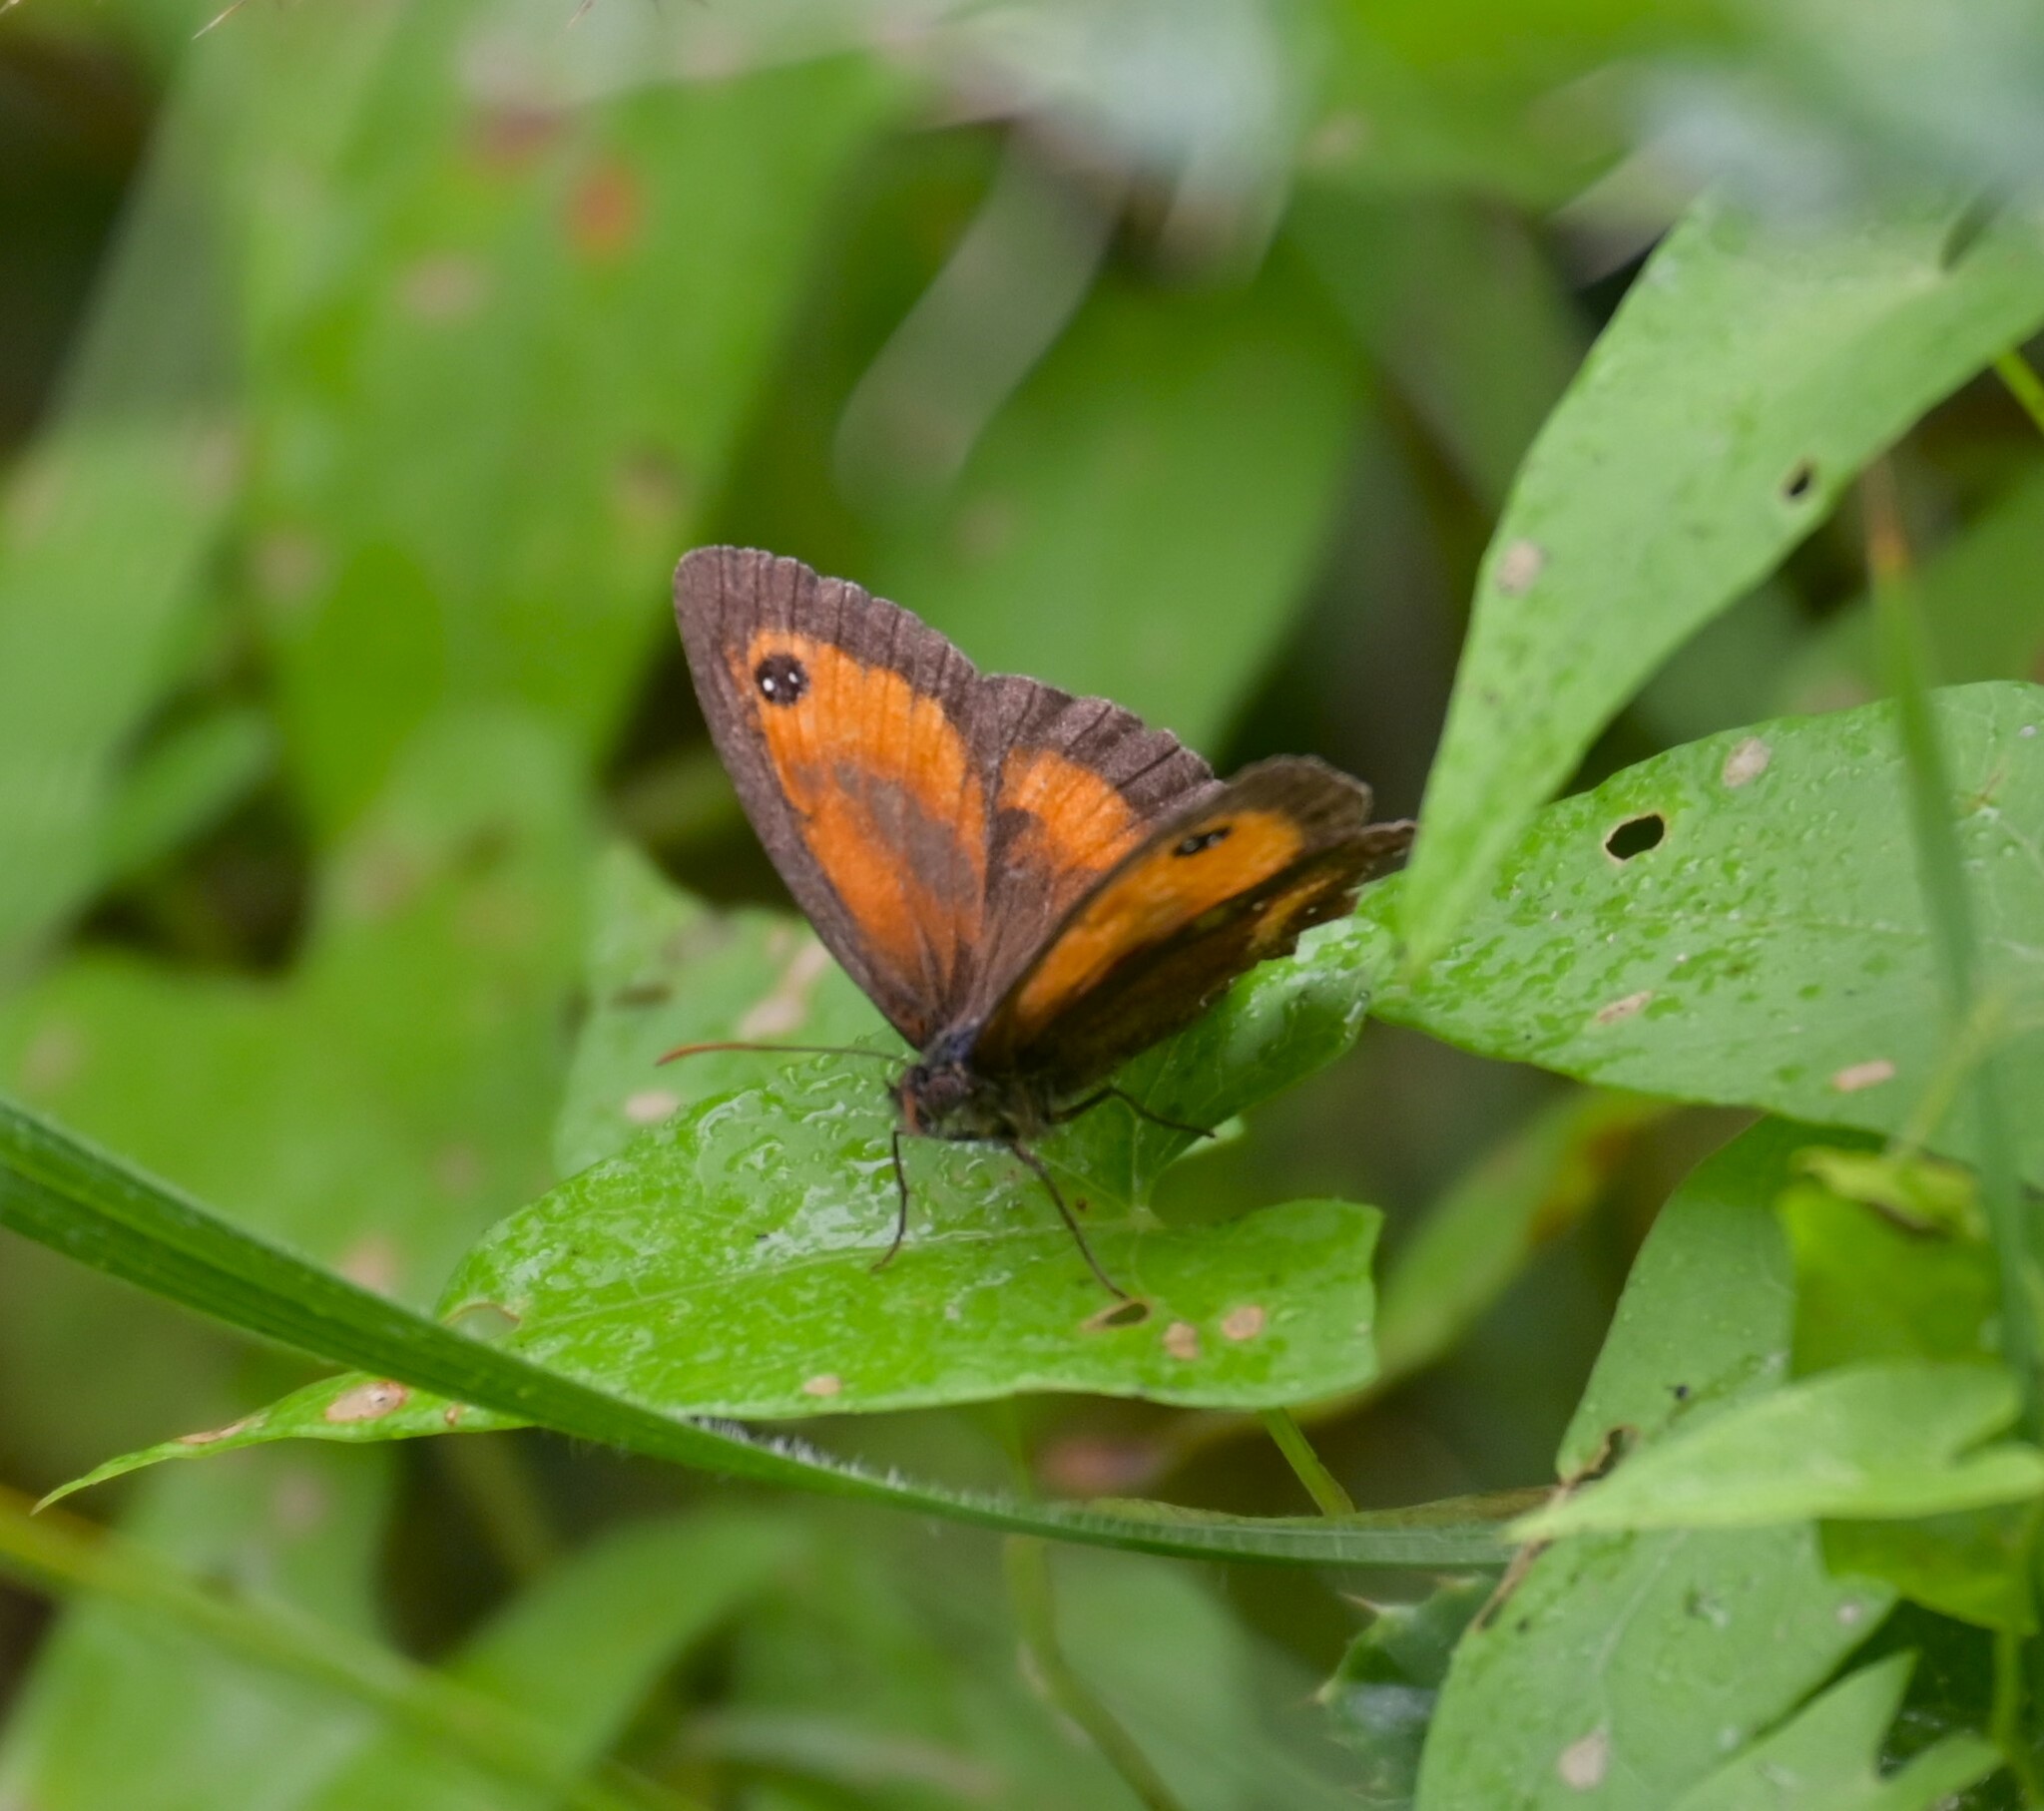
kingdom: Animalia
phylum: Arthropoda
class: Insecta
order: Lepidoptera
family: Nymphalidae
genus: Pyronia
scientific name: Pyronia tithonus
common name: Gatekeeper
